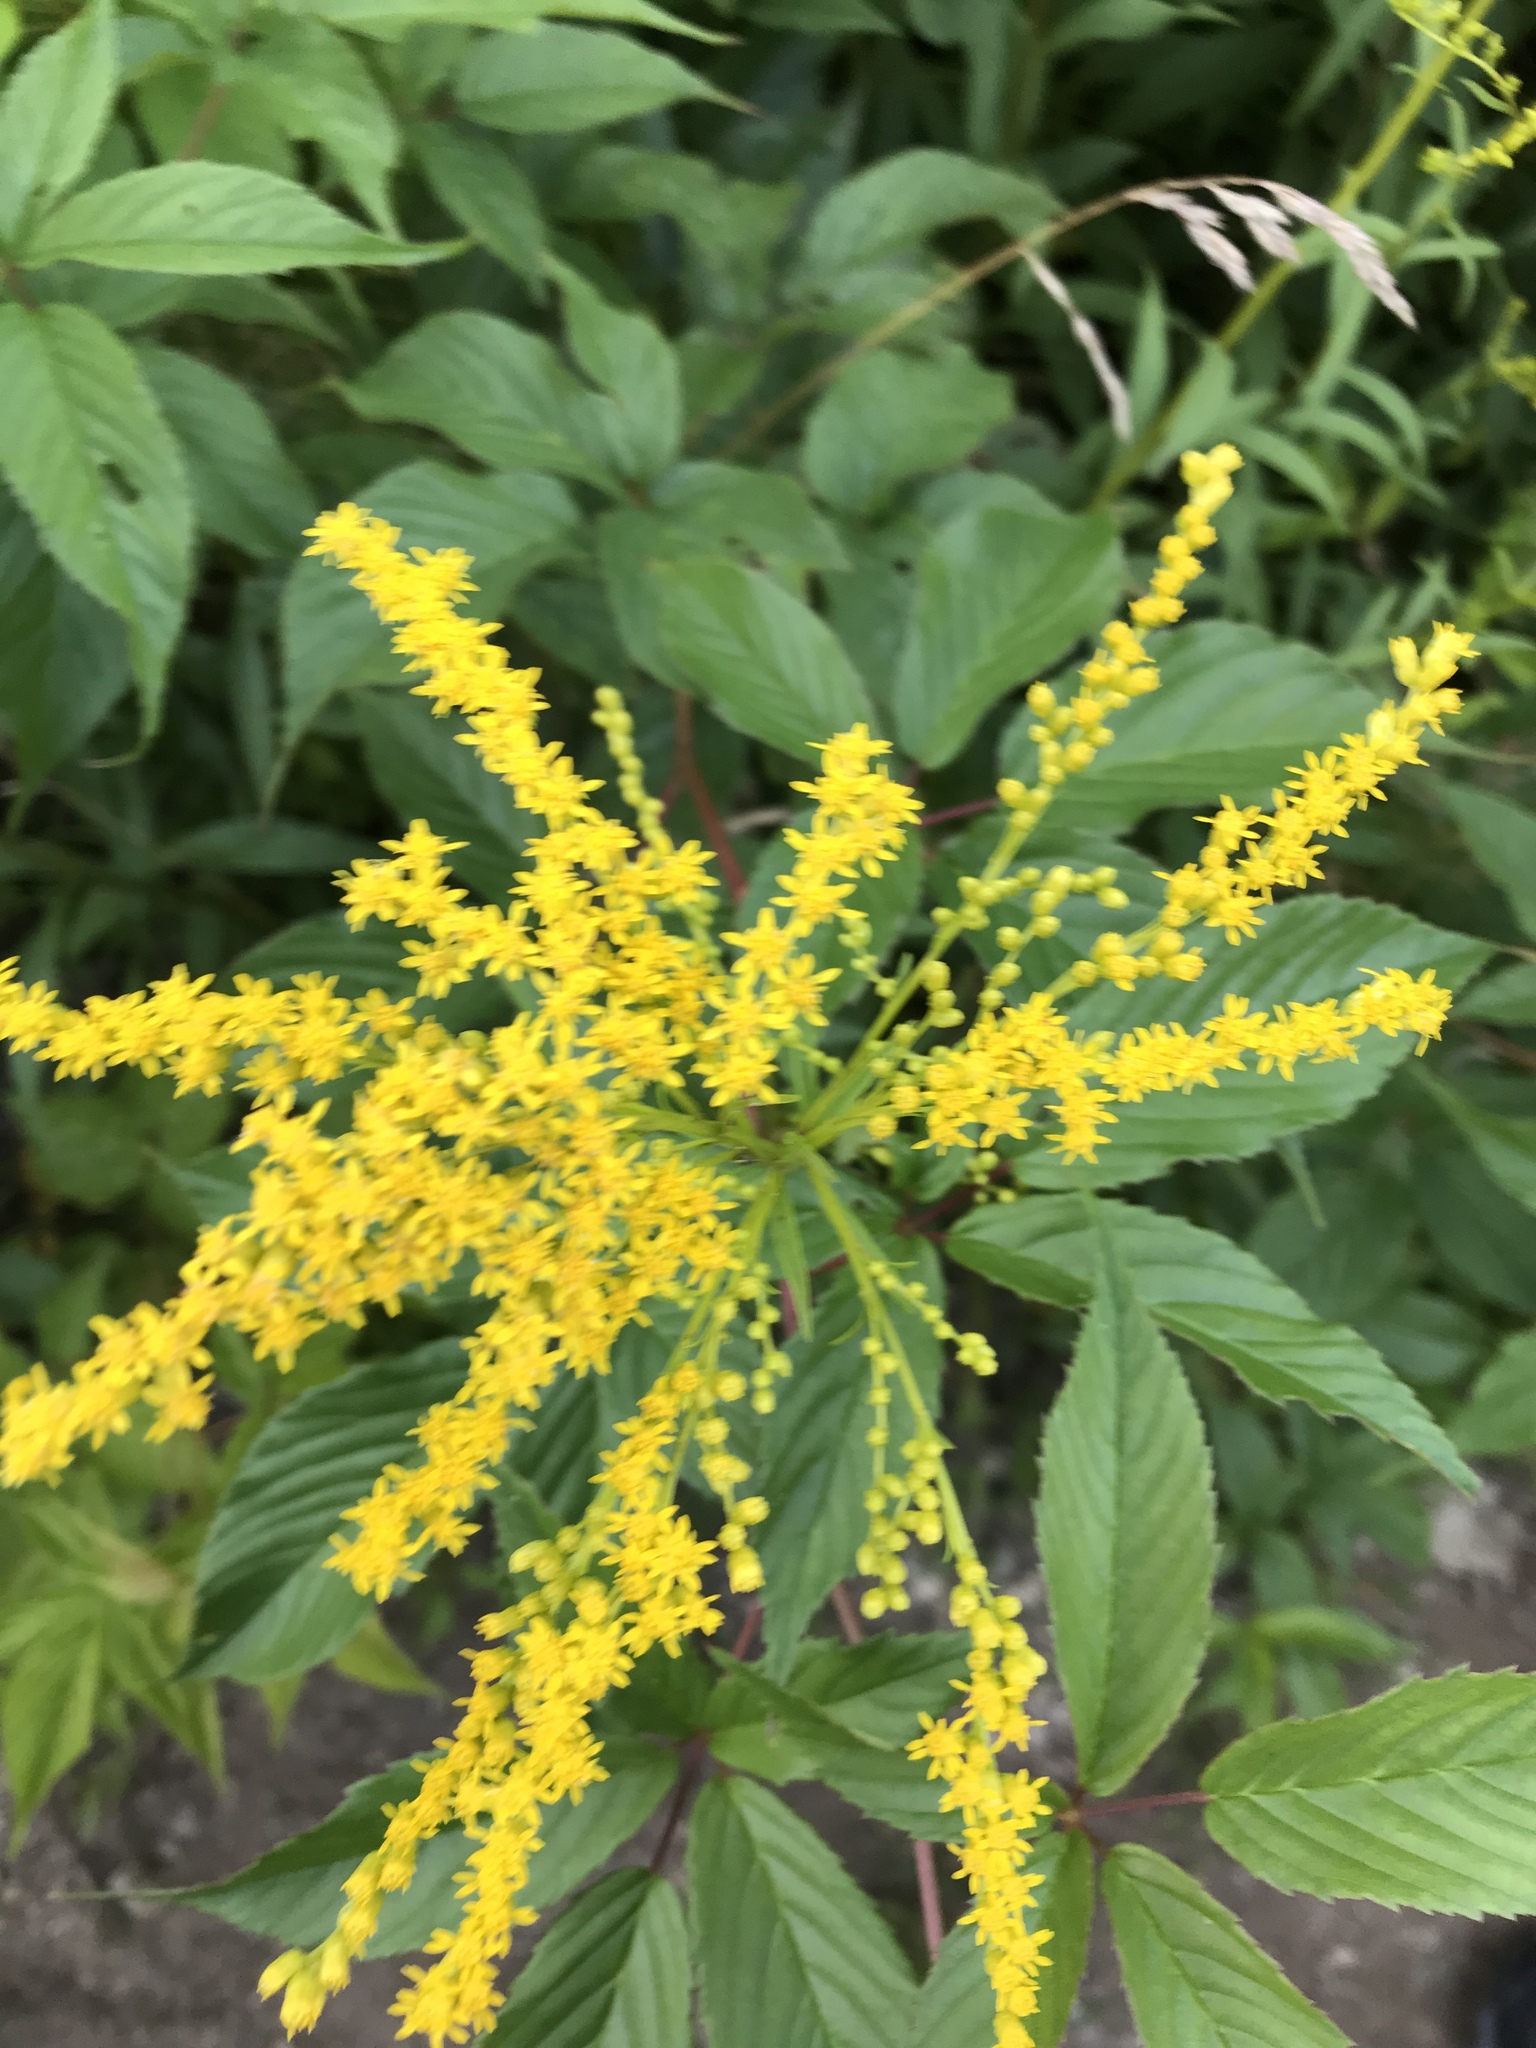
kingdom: Plantae
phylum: Tracheophyta
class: Magnoliopsida
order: Asterales
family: Asteraceae
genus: Solidago
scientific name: Solidago juncea
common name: Early goldenrod
